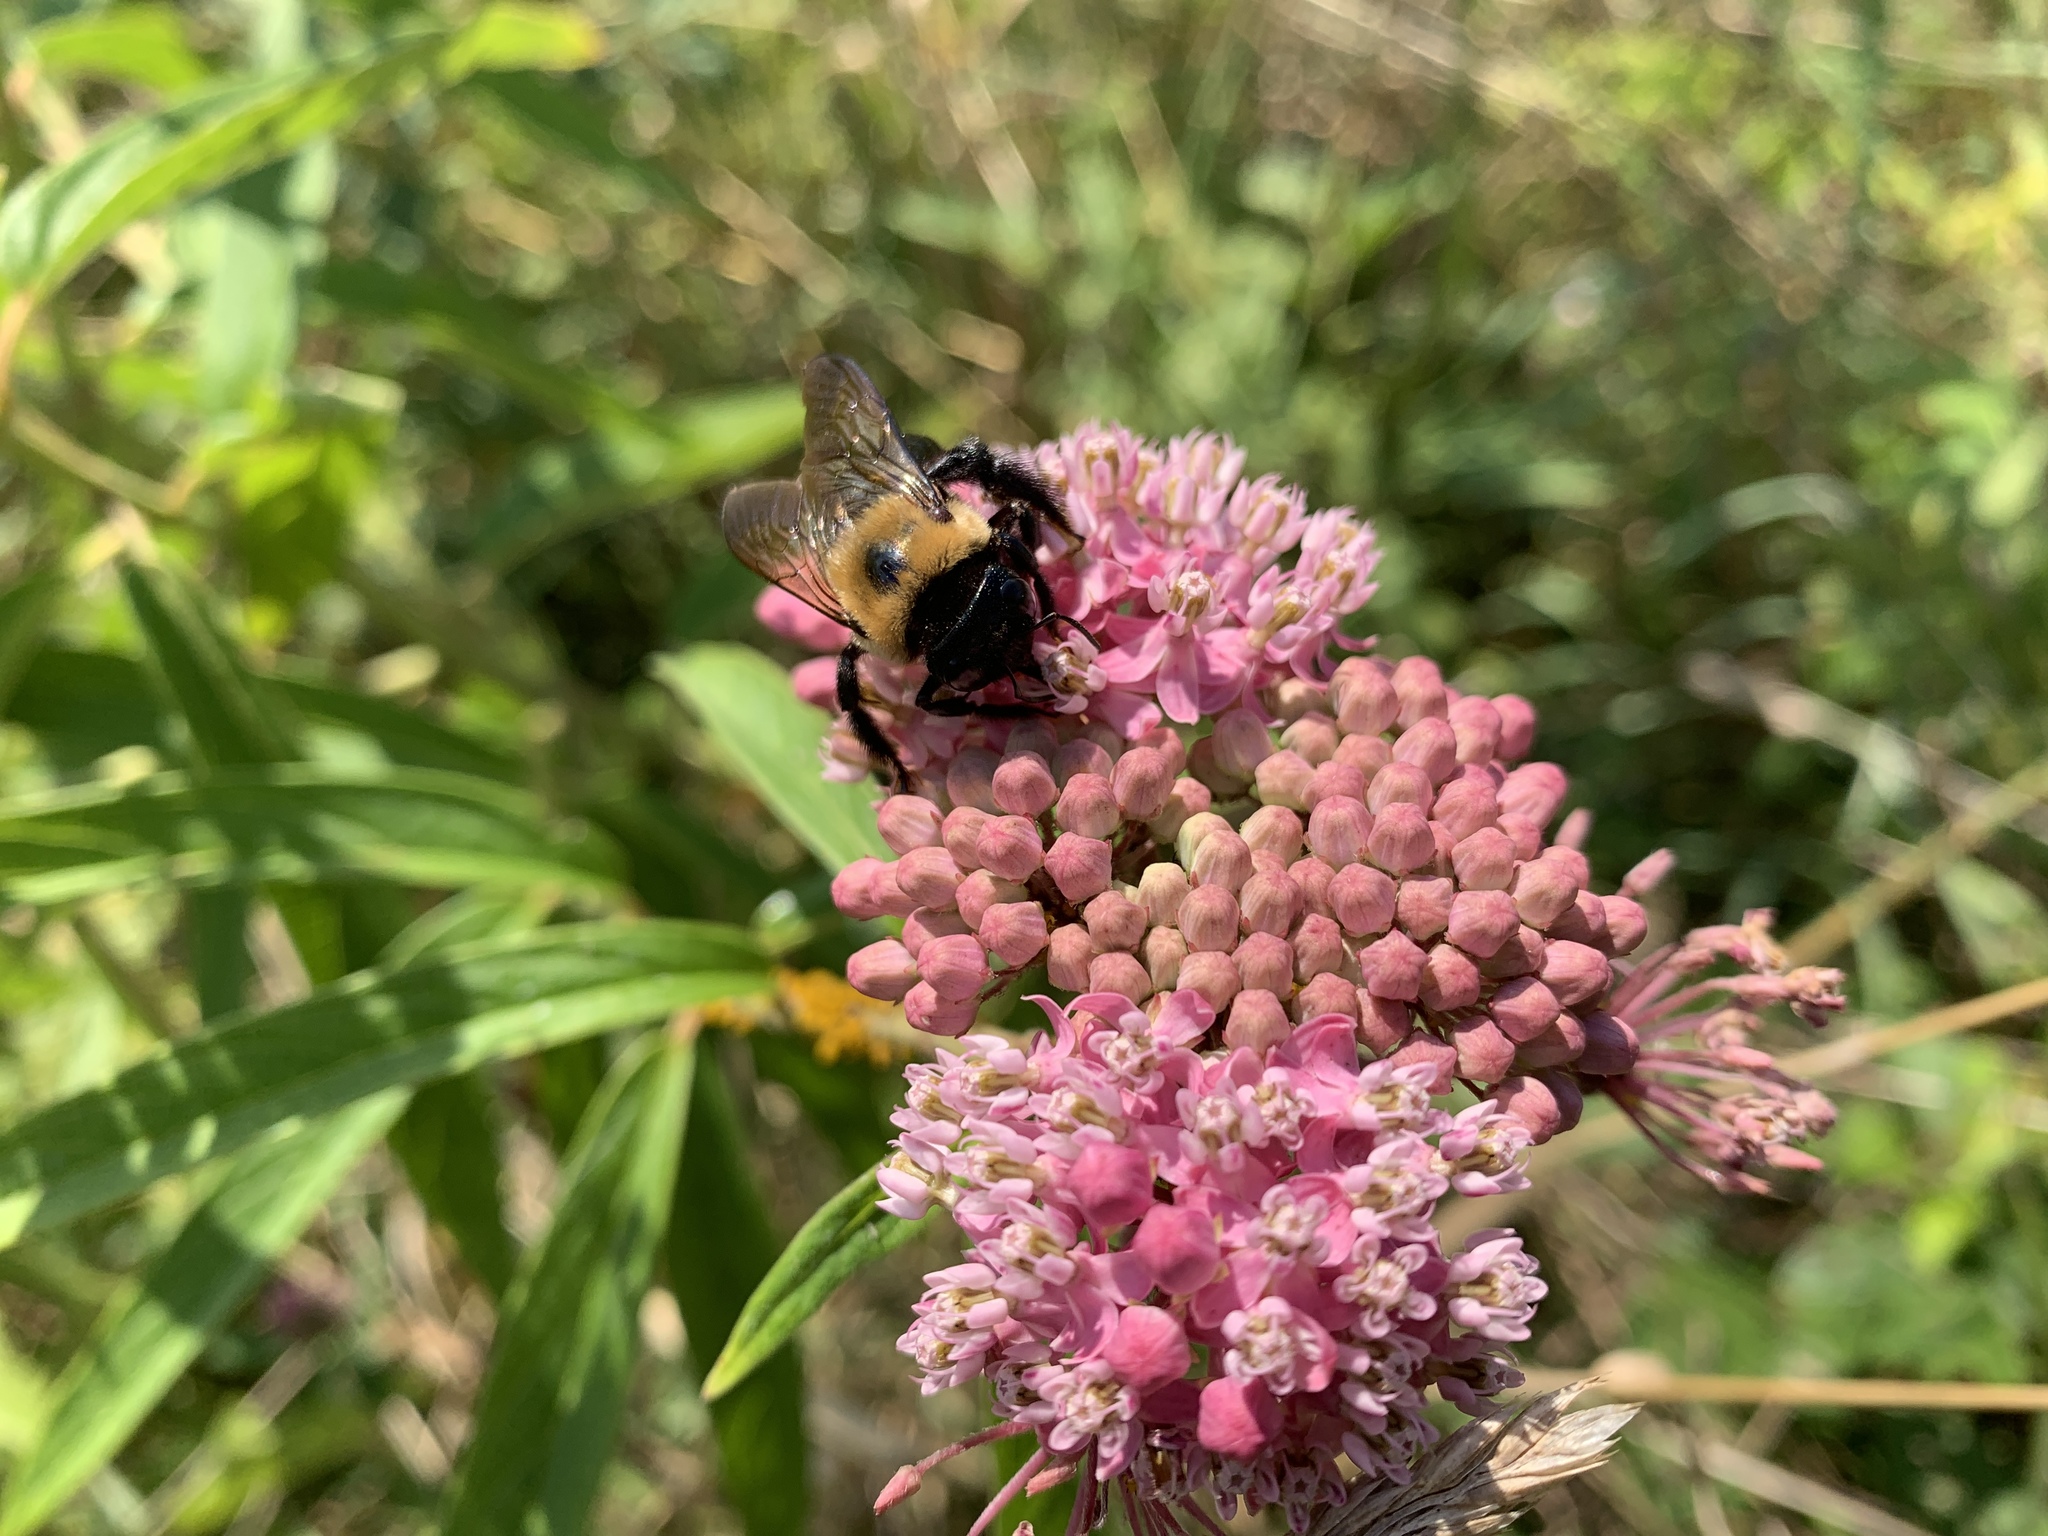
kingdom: Animalia
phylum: Arthropoda
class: Insecta
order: Hymenoptera
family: Apidae
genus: Xylocopa
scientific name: Xylocopa virginica
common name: Carpenter bee
